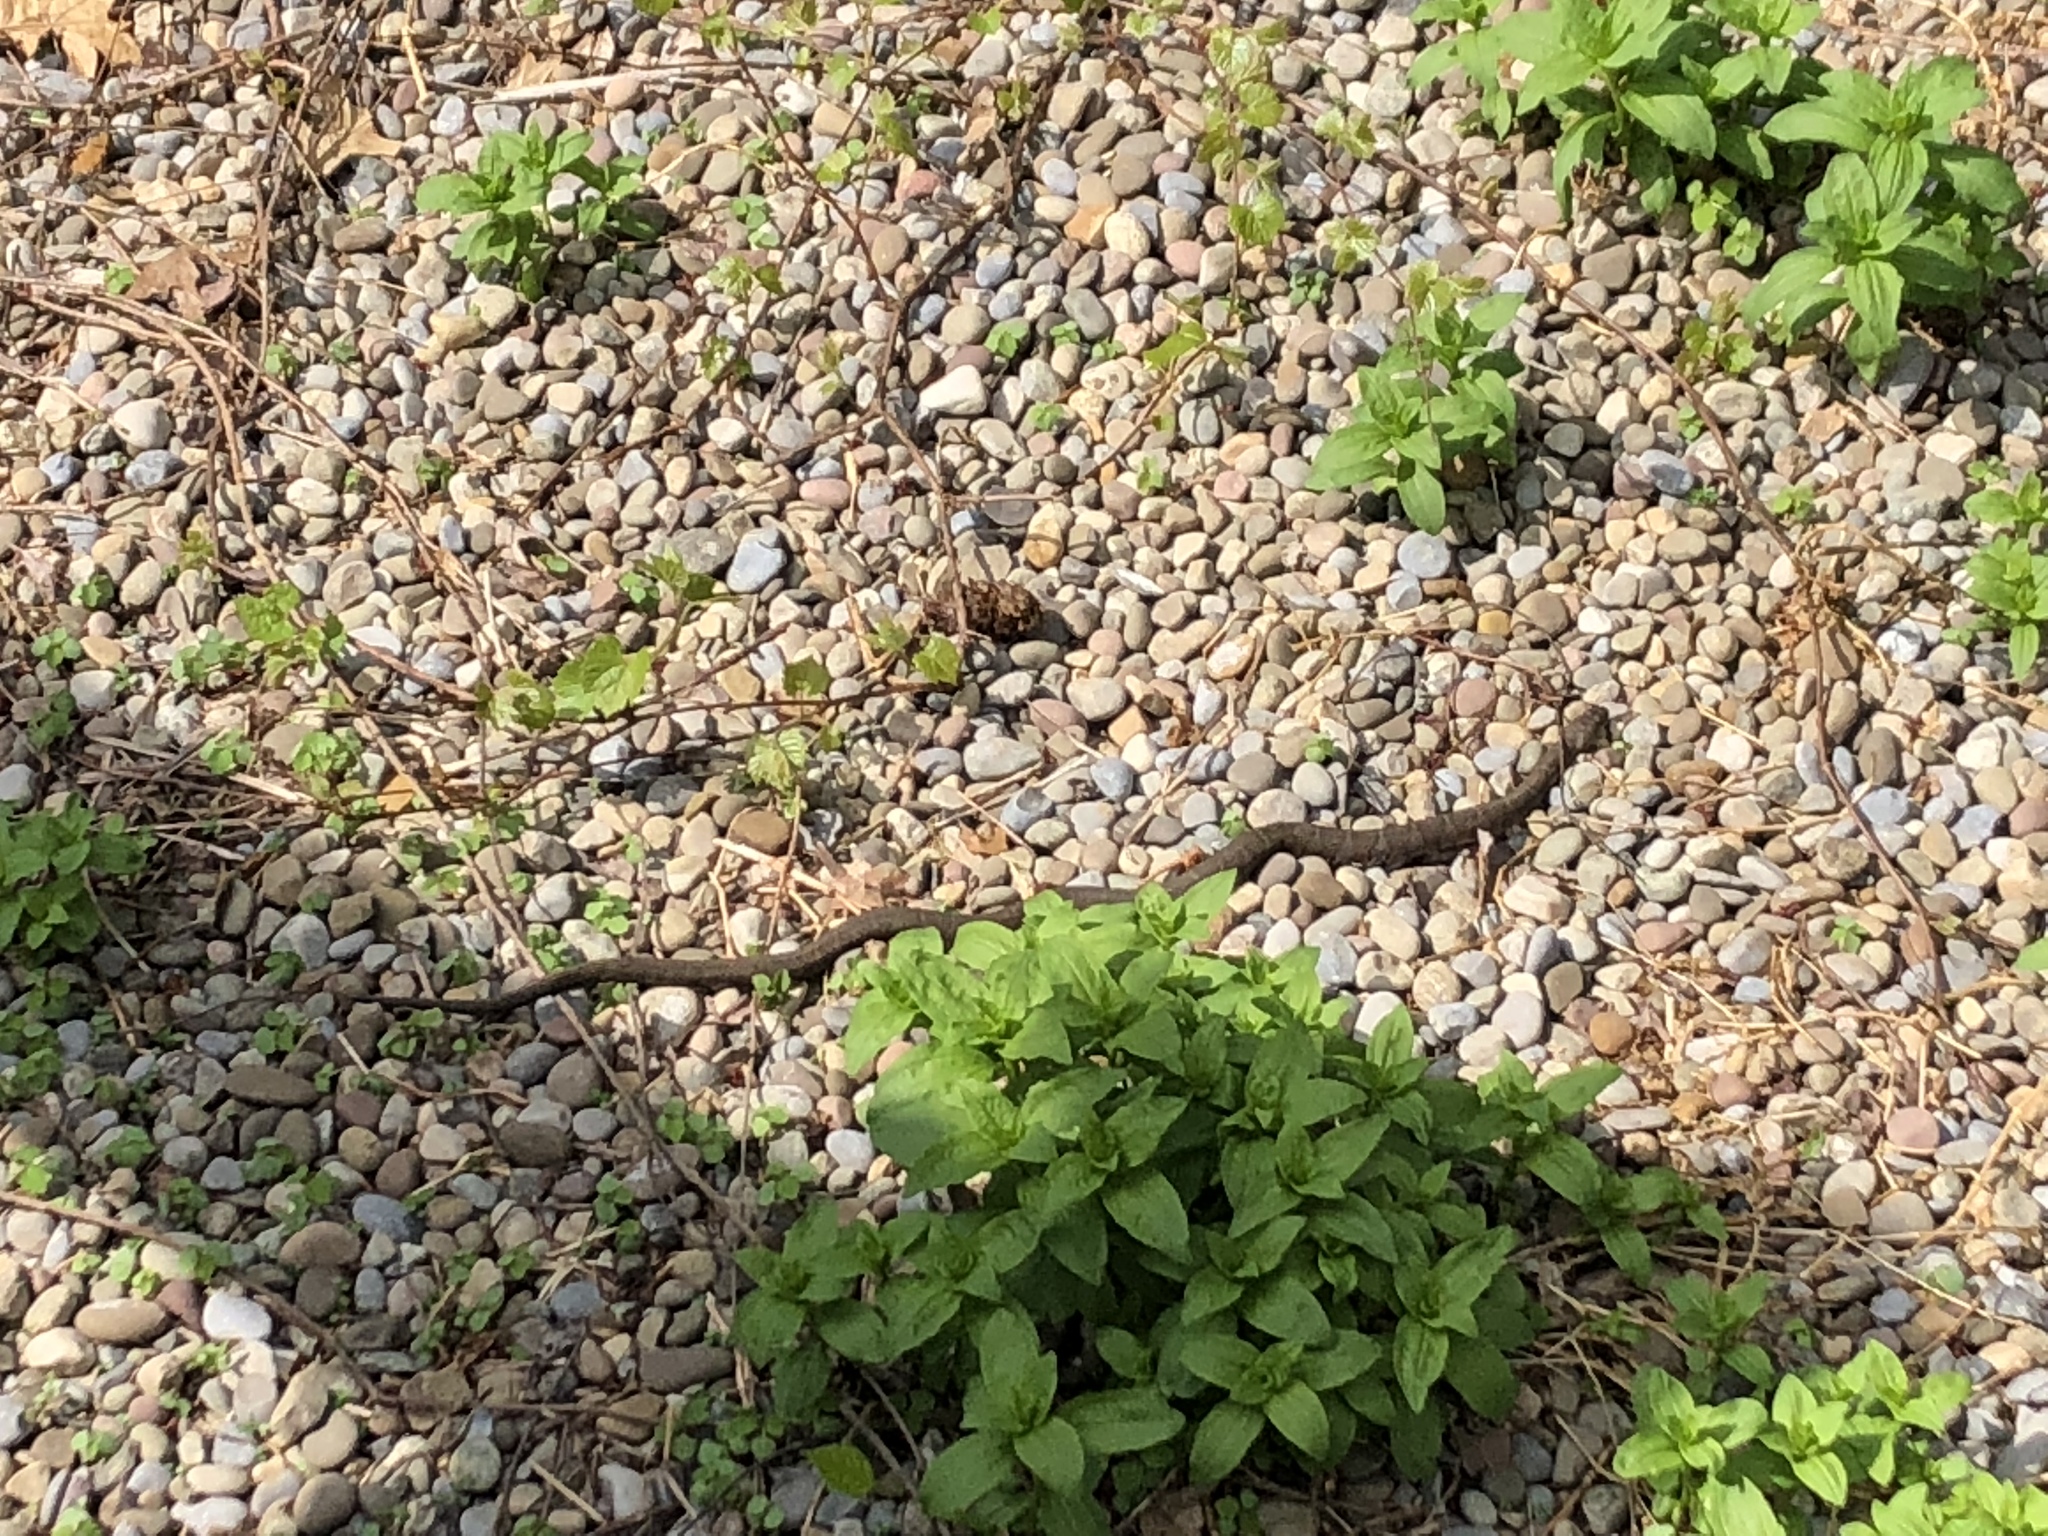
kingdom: Animalia
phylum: Chordata
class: Squamata
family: Colubridae
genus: Nerodia
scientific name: Nerodia sipedon
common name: Northern water snake
